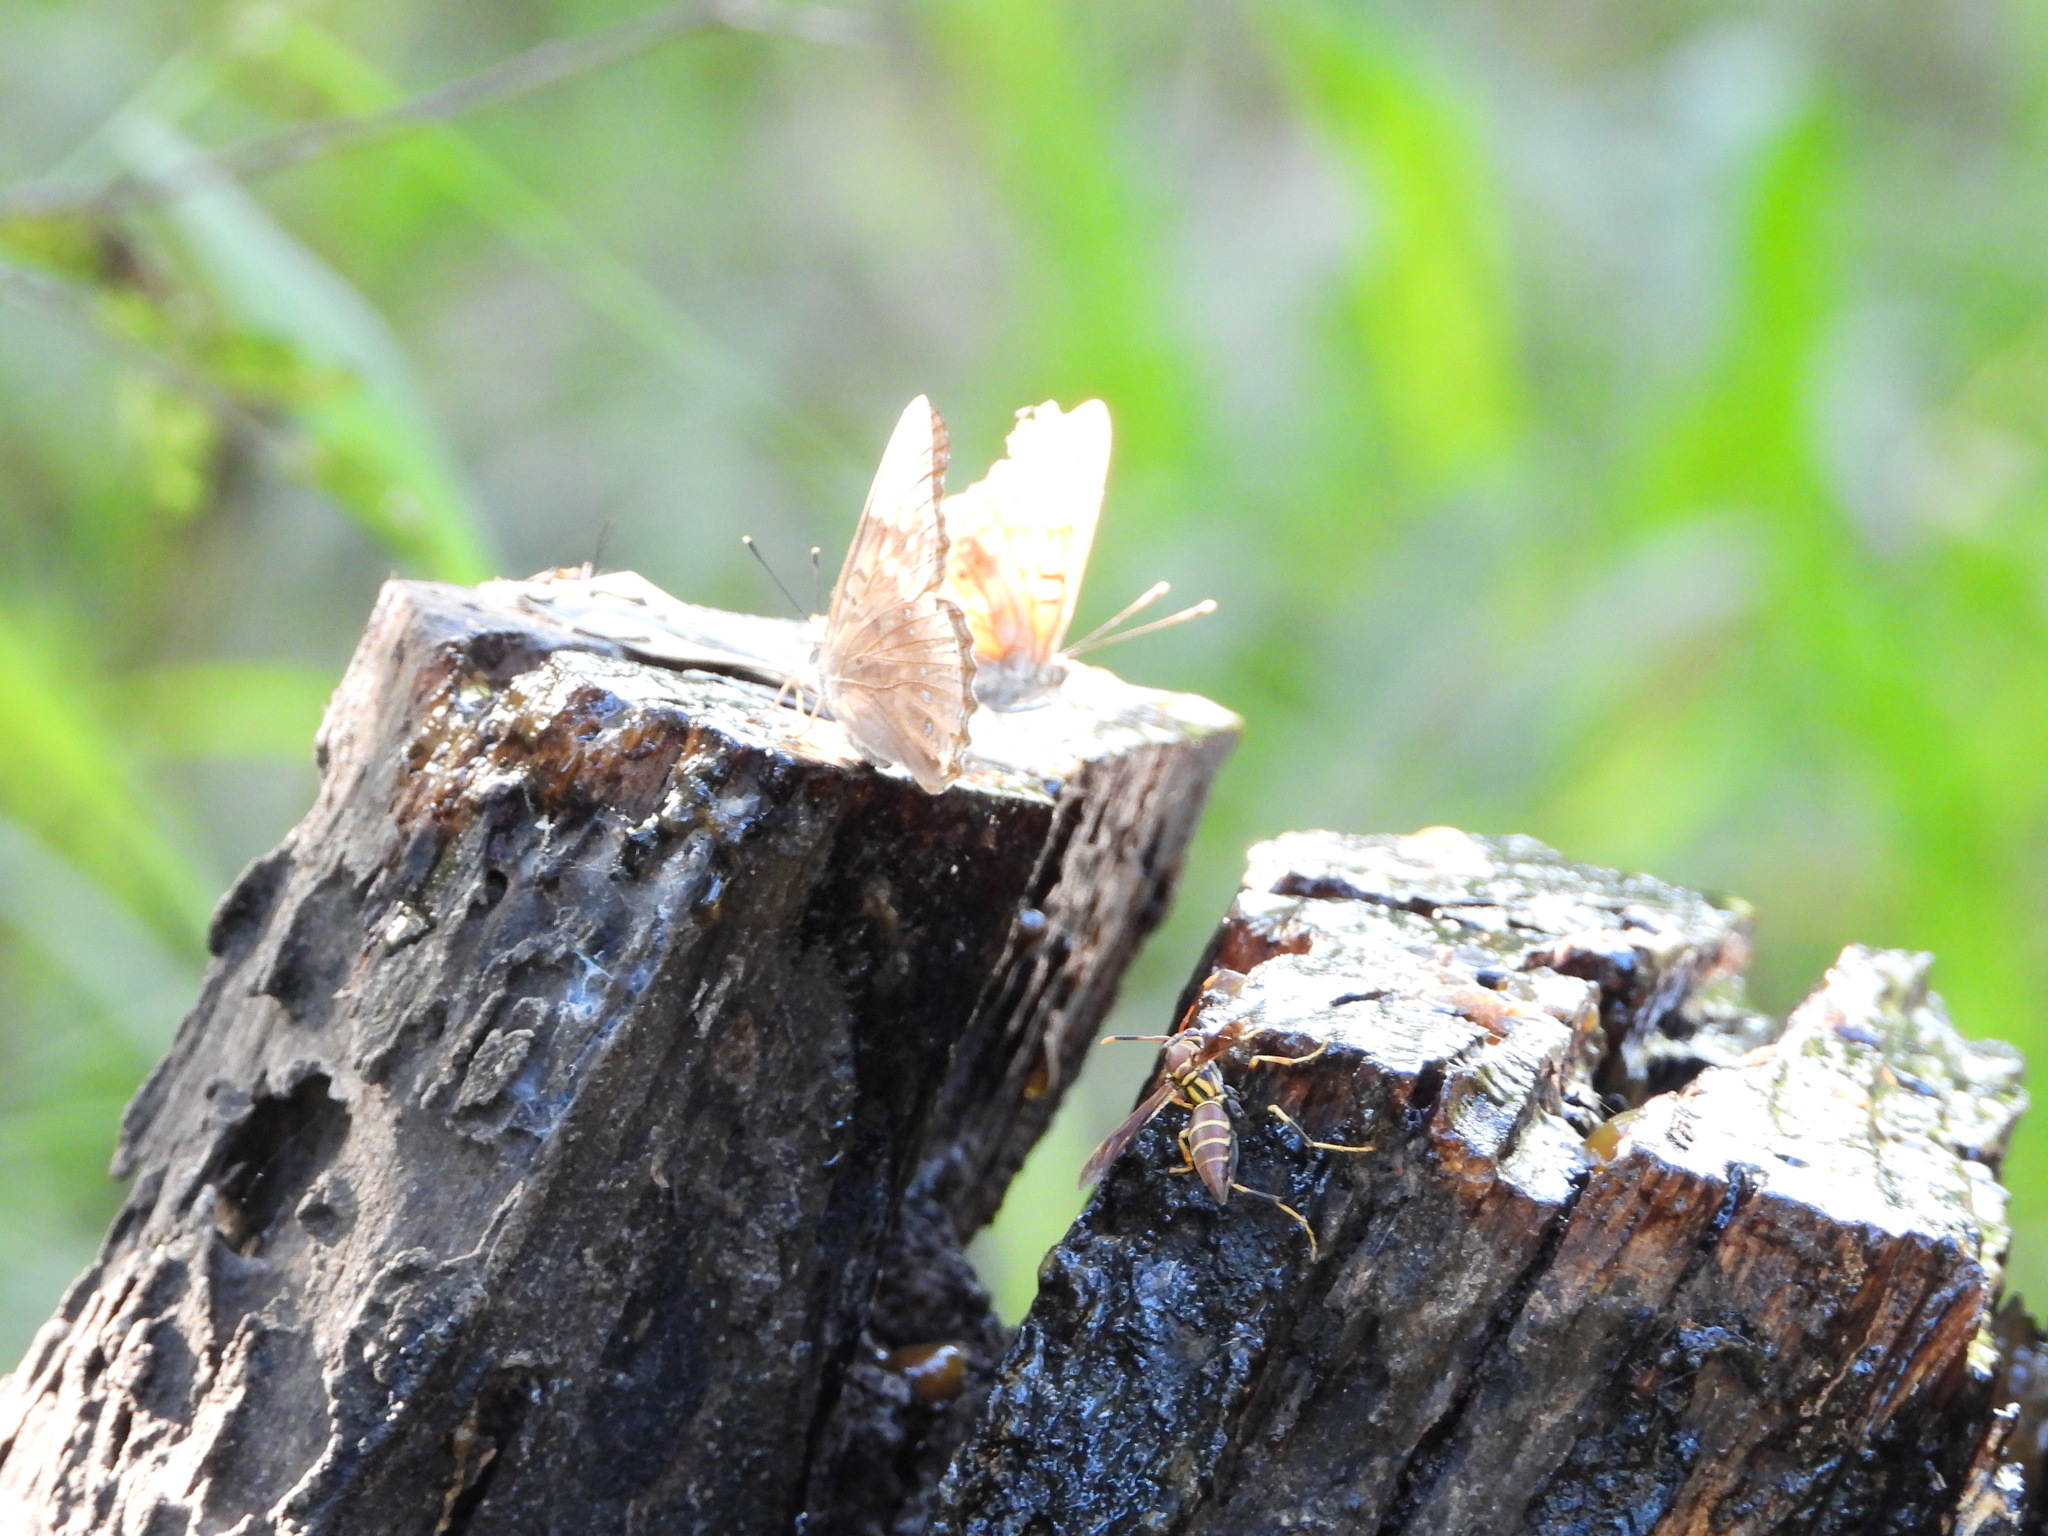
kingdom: Animalia
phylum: Arthropoda
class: Insecta
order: Hymenoptera
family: Eumenidae
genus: Polistes
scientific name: Polistes instabilis
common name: Unstable paper wasp
